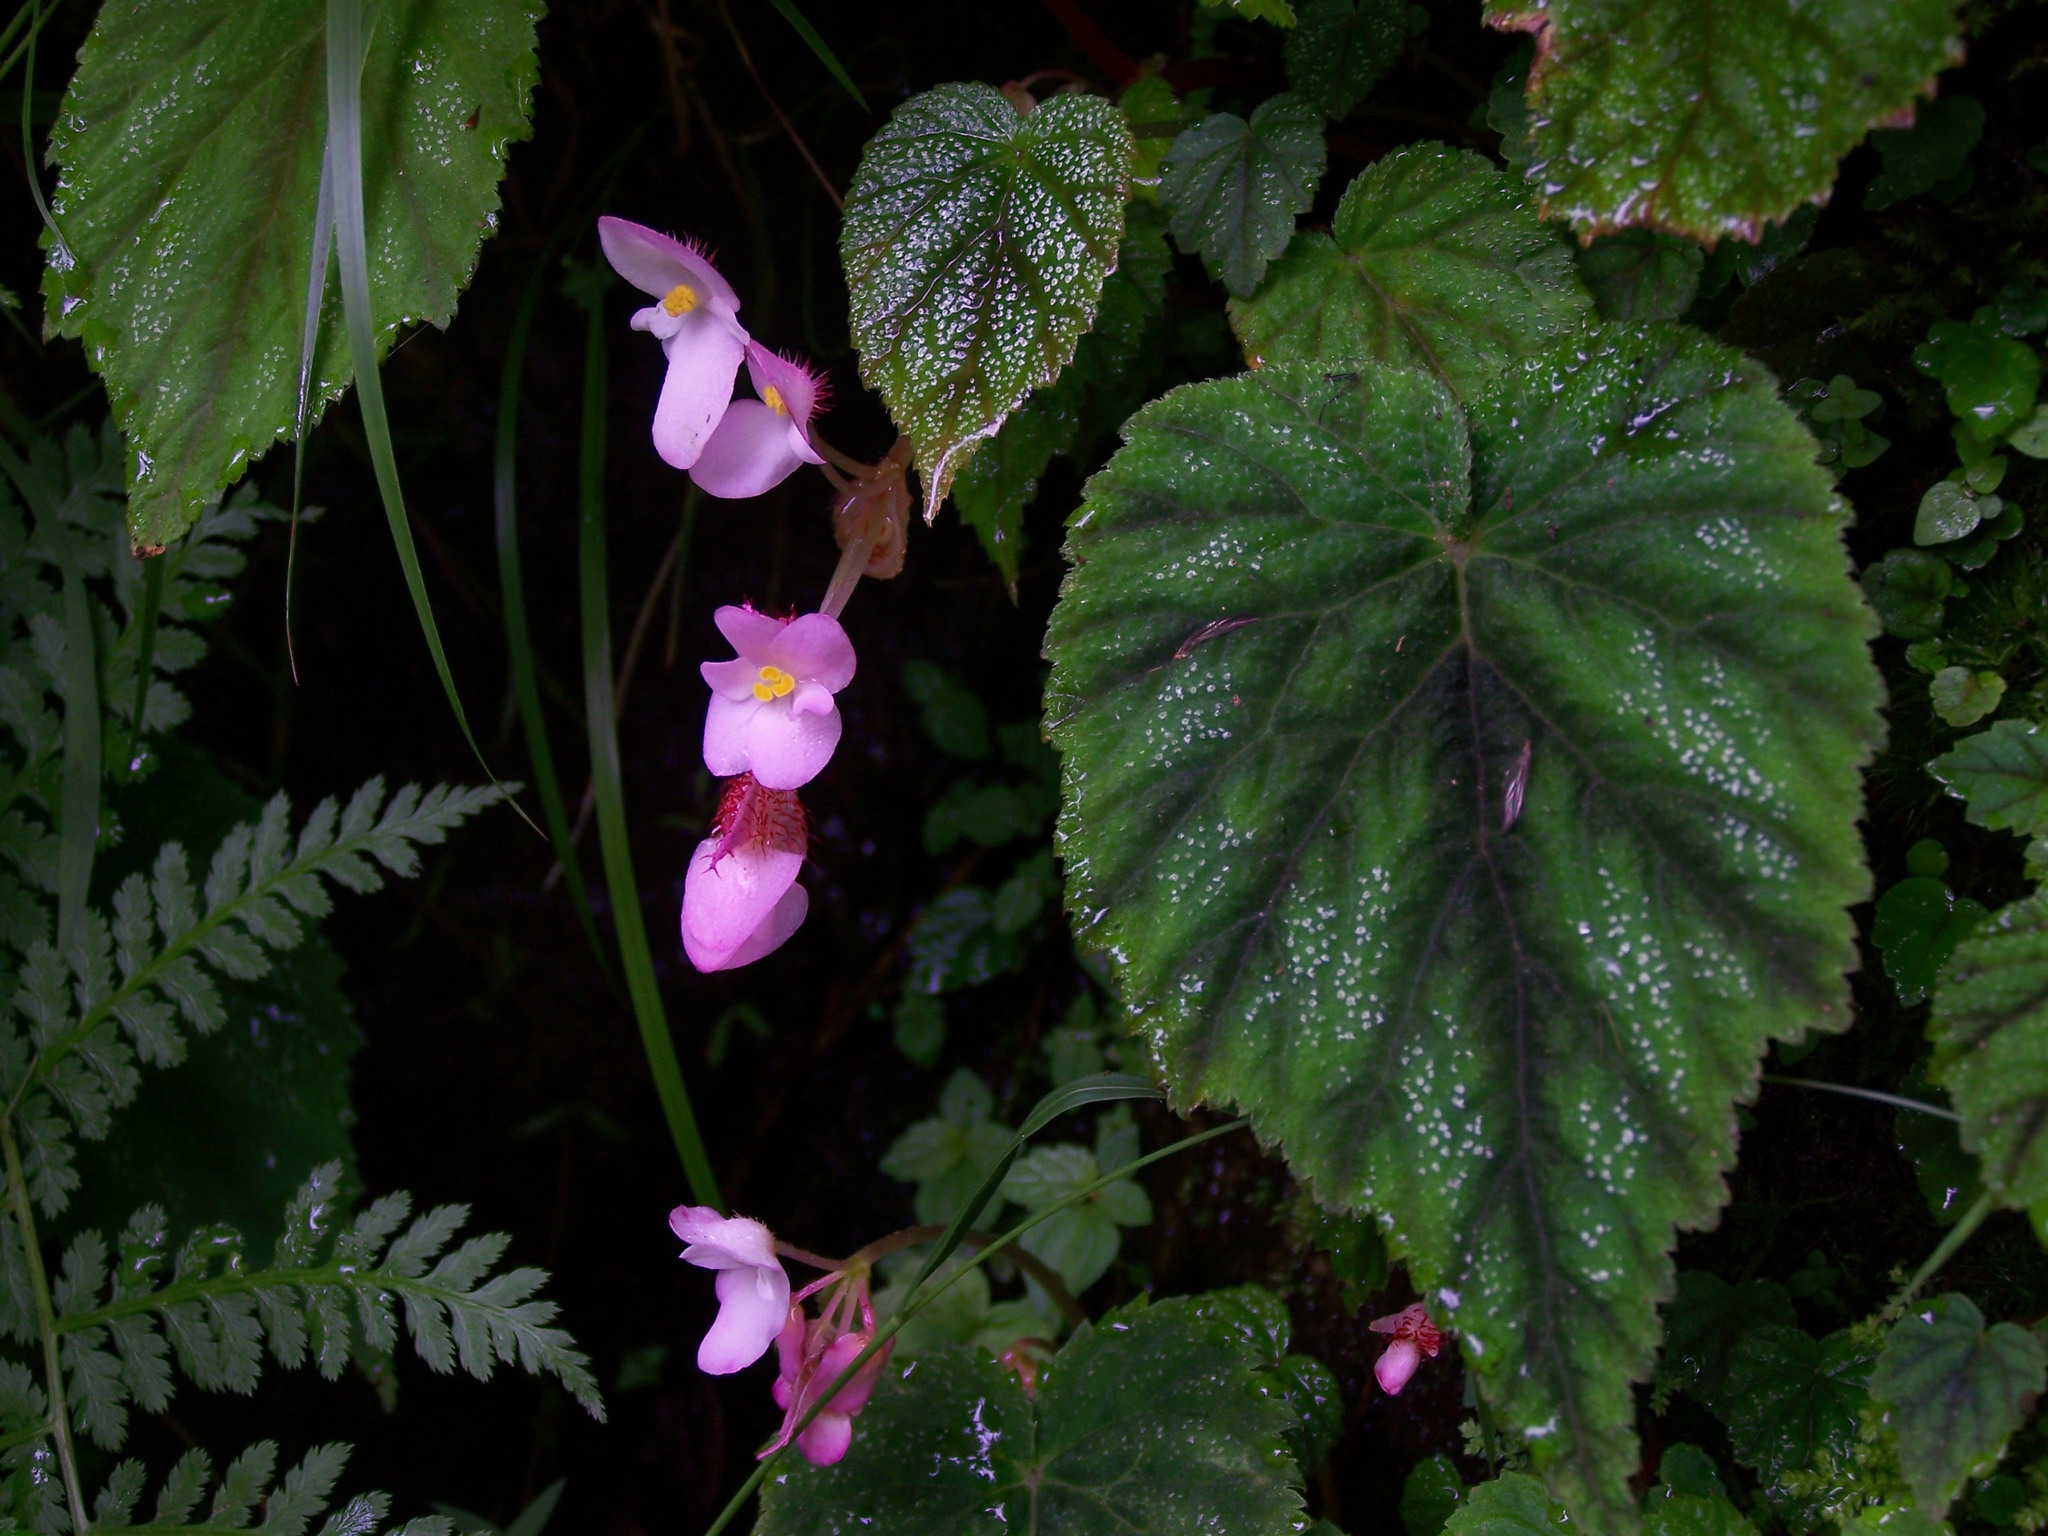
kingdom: Plantae
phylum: Tracheophyta
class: Magnoliopsida
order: Cucurbitales
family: Begoniaceae
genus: Begonia
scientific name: Begonia picta
